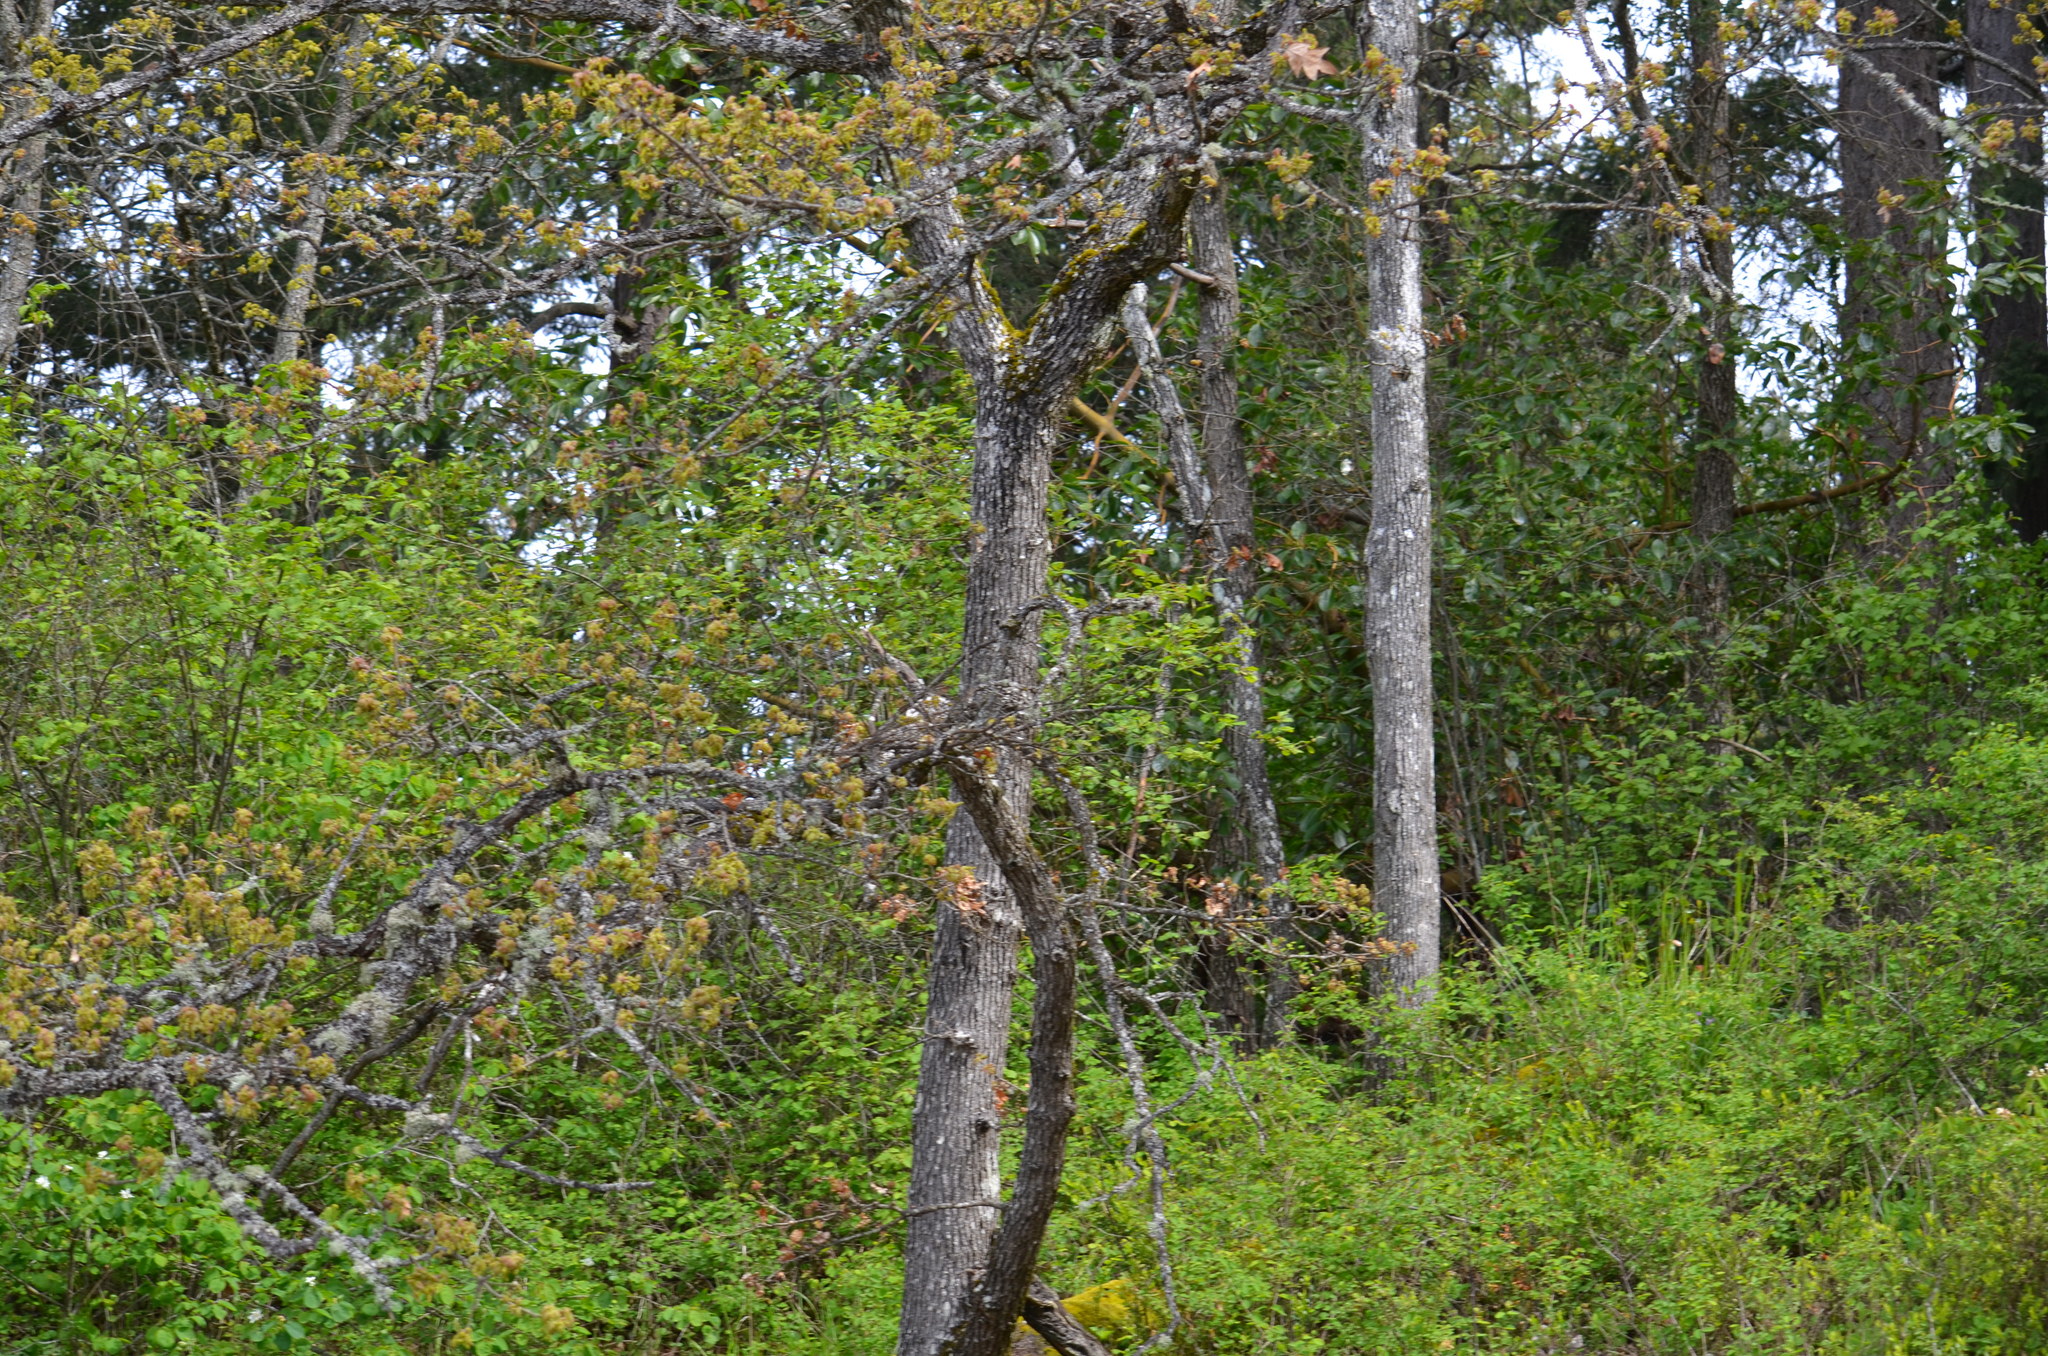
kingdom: Plantae
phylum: Tracheophyta
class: Magnoliopsida
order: Fagales
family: Fagaceae
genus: Quercus
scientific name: Quercus garryana
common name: Garry oak
